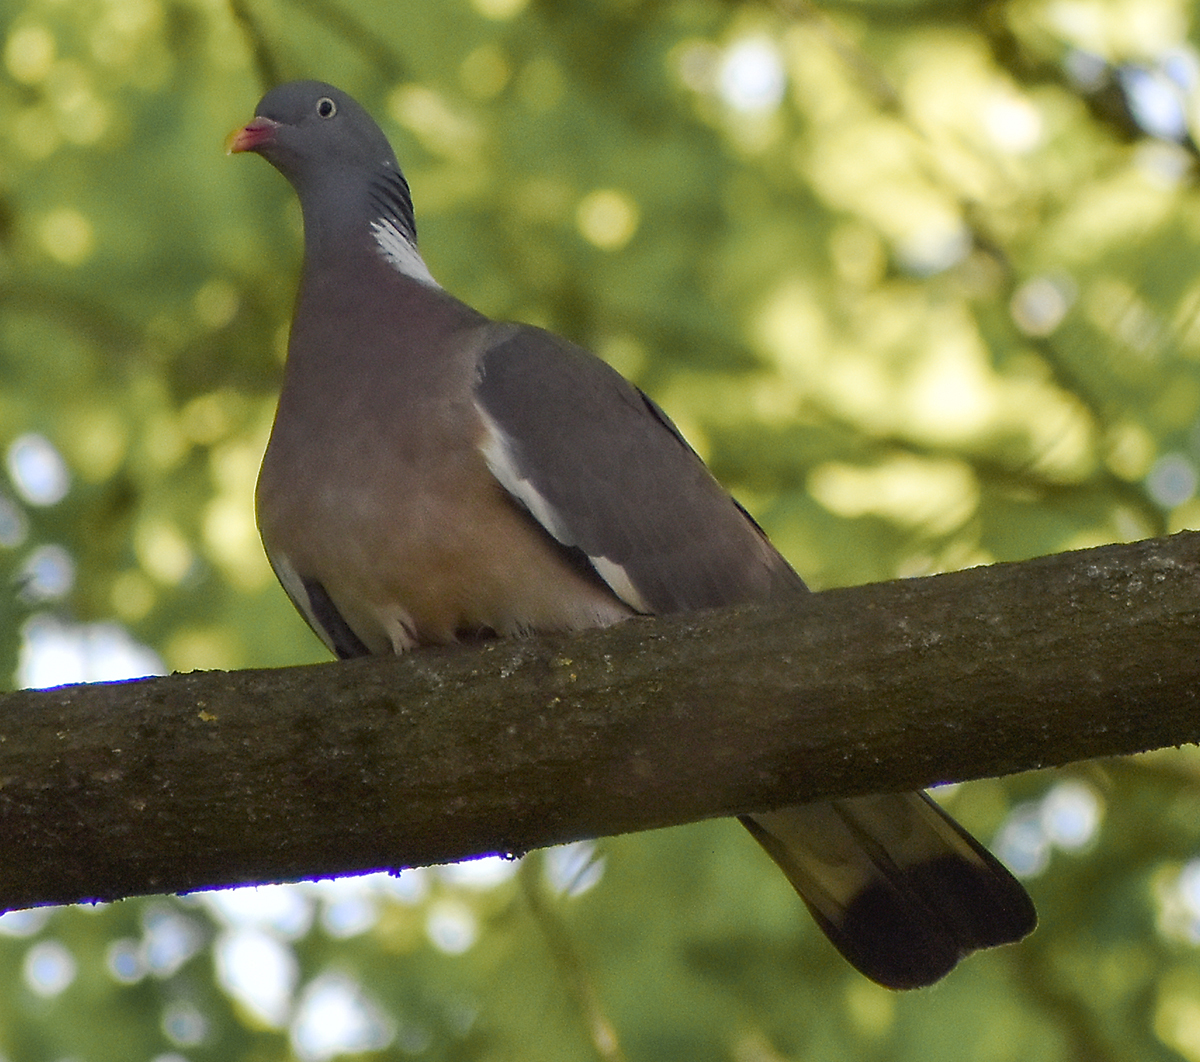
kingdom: Animalia
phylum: Chordata
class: Aves
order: Columbiformes
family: Columbidae
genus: Columba
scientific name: Columba palumbus
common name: Common wood pigeon
